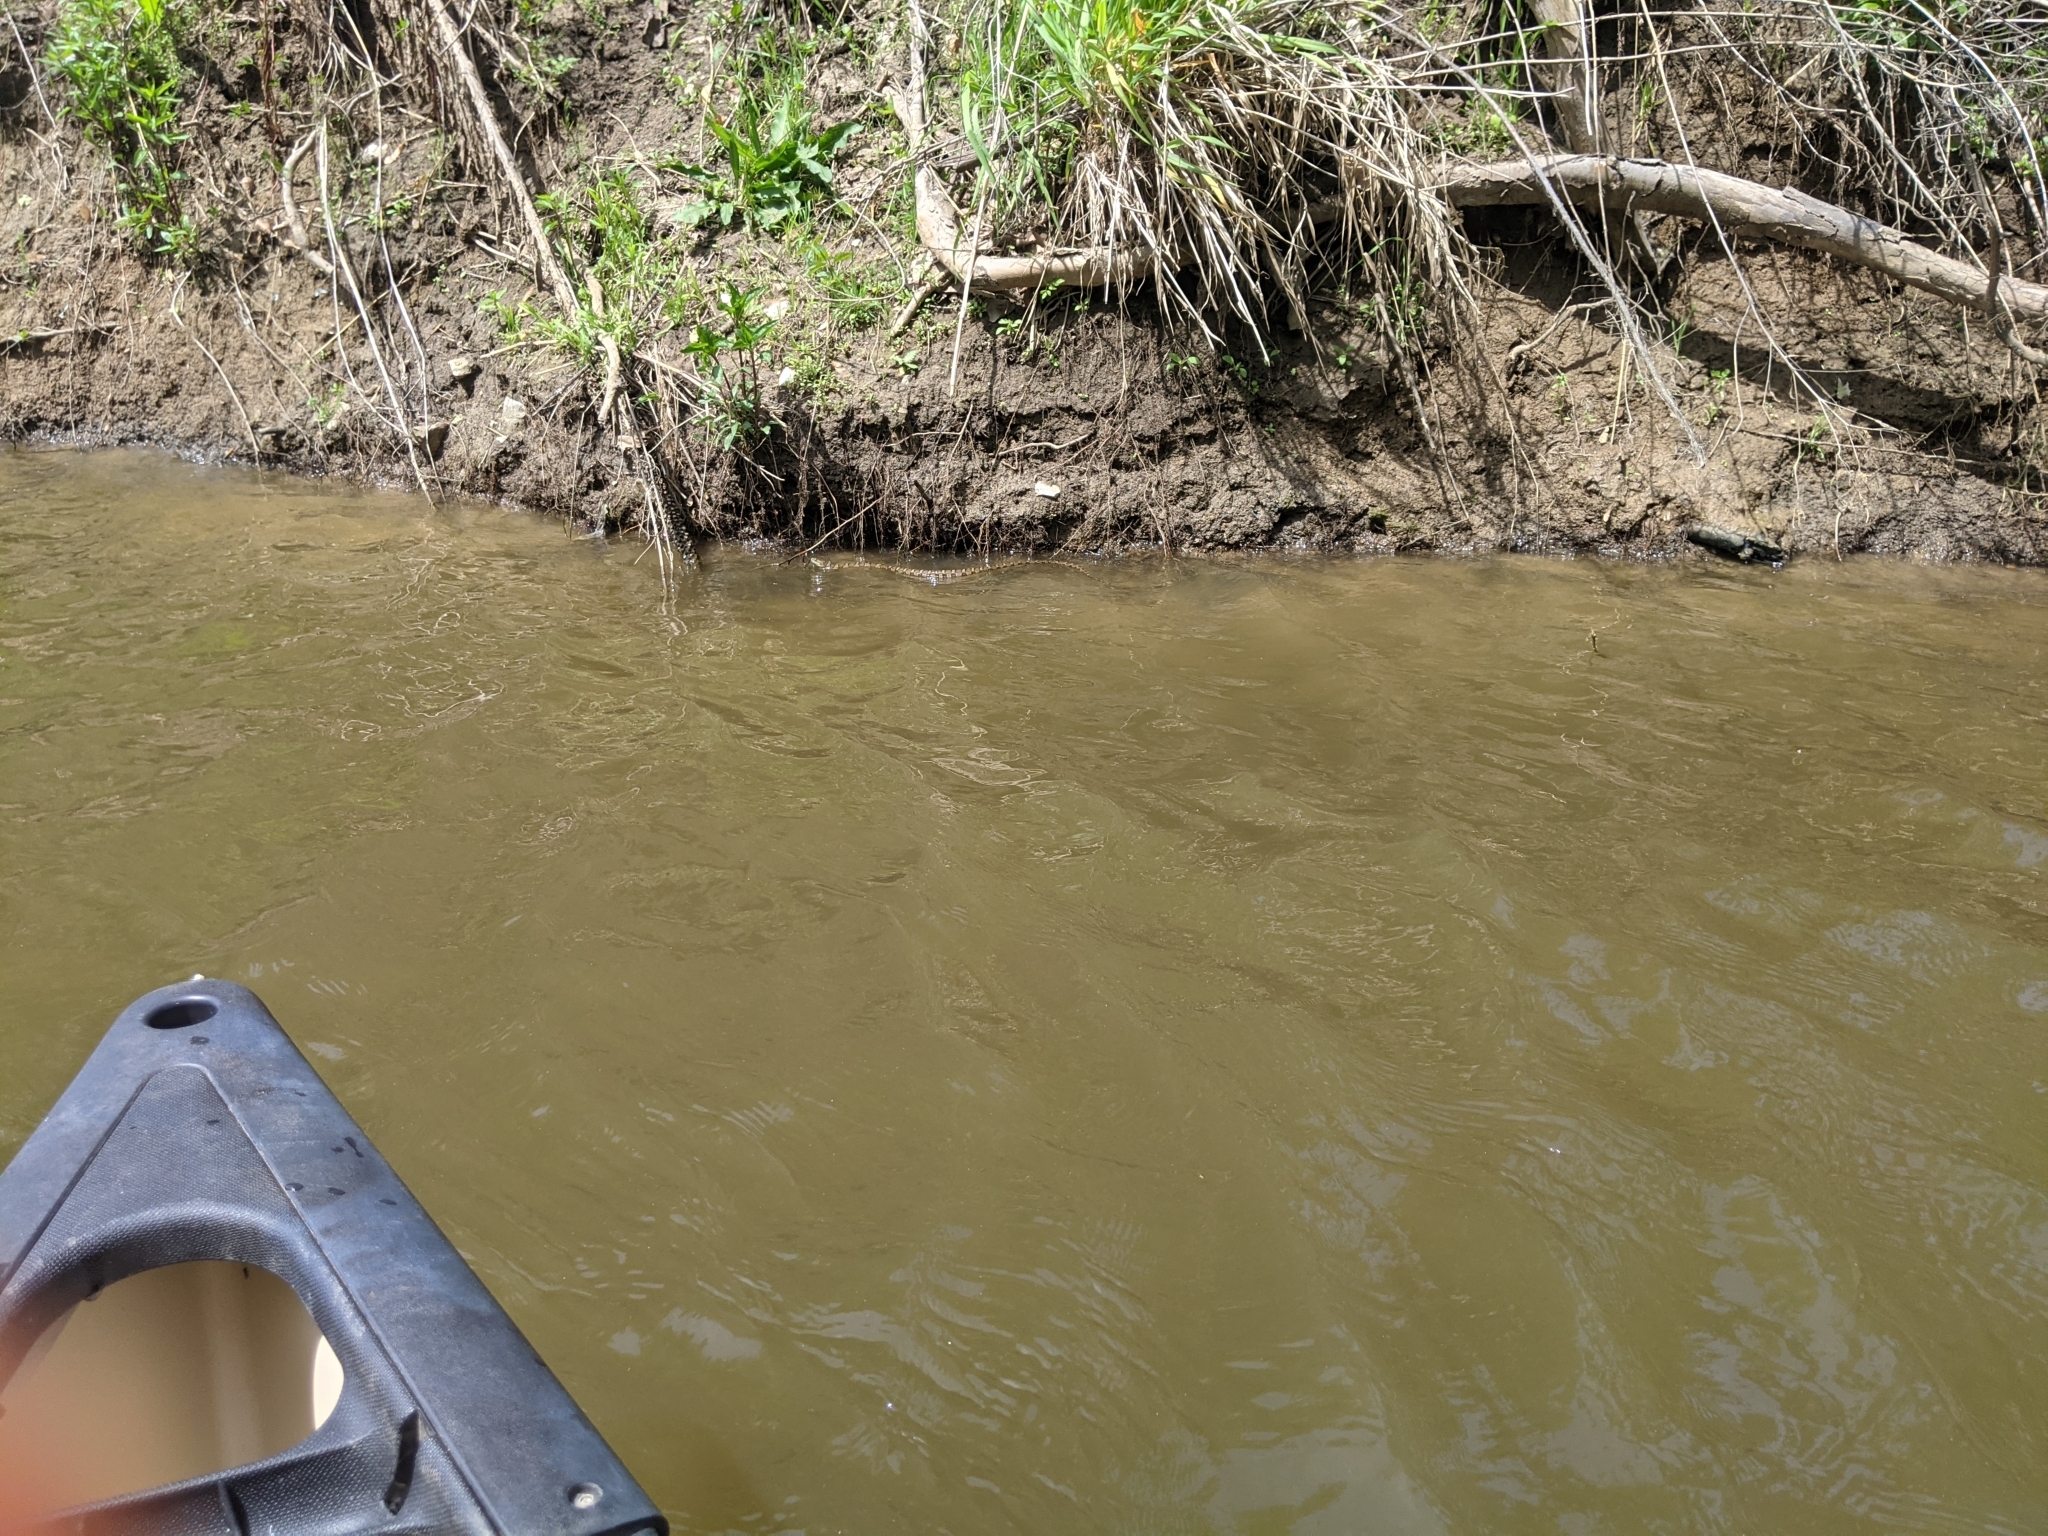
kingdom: Animalia
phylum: Chordata
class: Squamata
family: Colubridae
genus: Nerodia
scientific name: Nerodia sipedon
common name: Northern water snake
